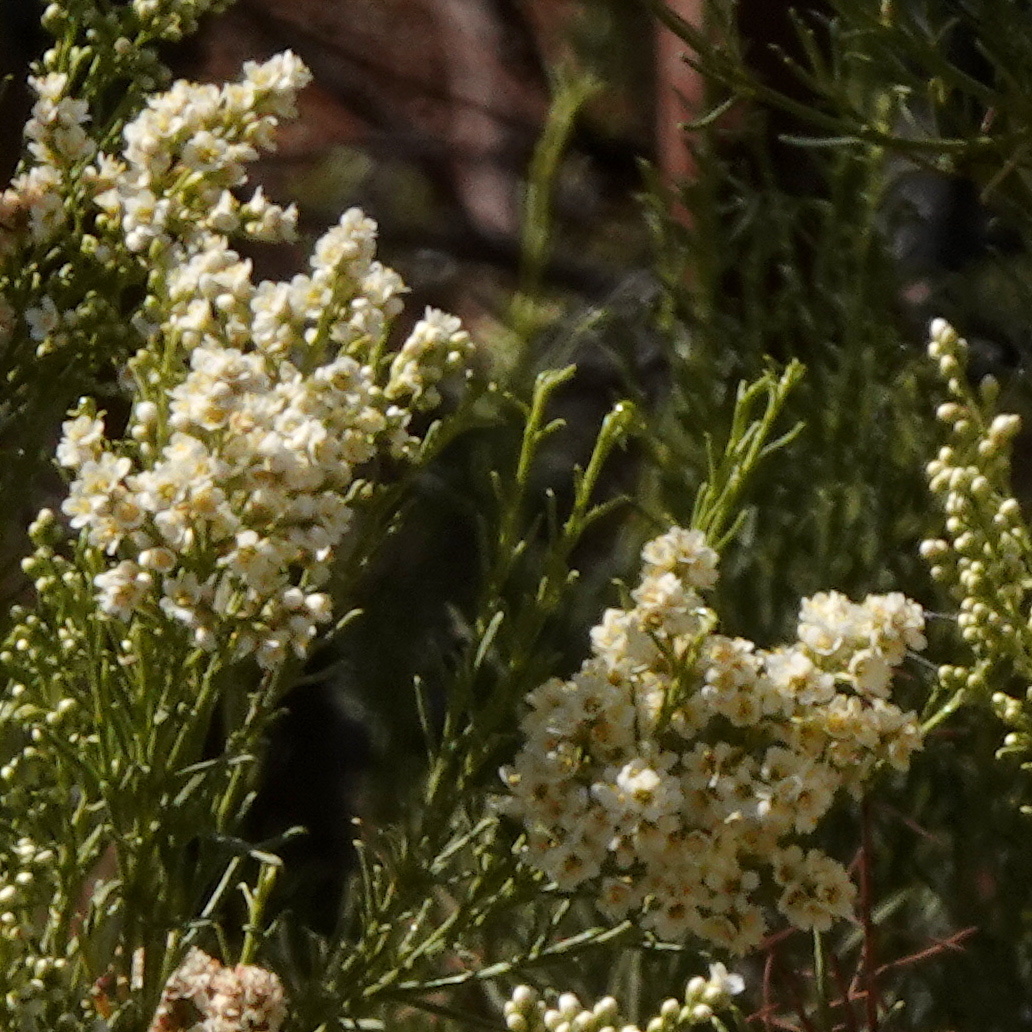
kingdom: Plantae
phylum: Tracheophyta
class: Magnoliopsida
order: Rosales
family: Rosaceae
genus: Adenostoma
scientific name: Adenostoma sparsifolium
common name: Red shank
